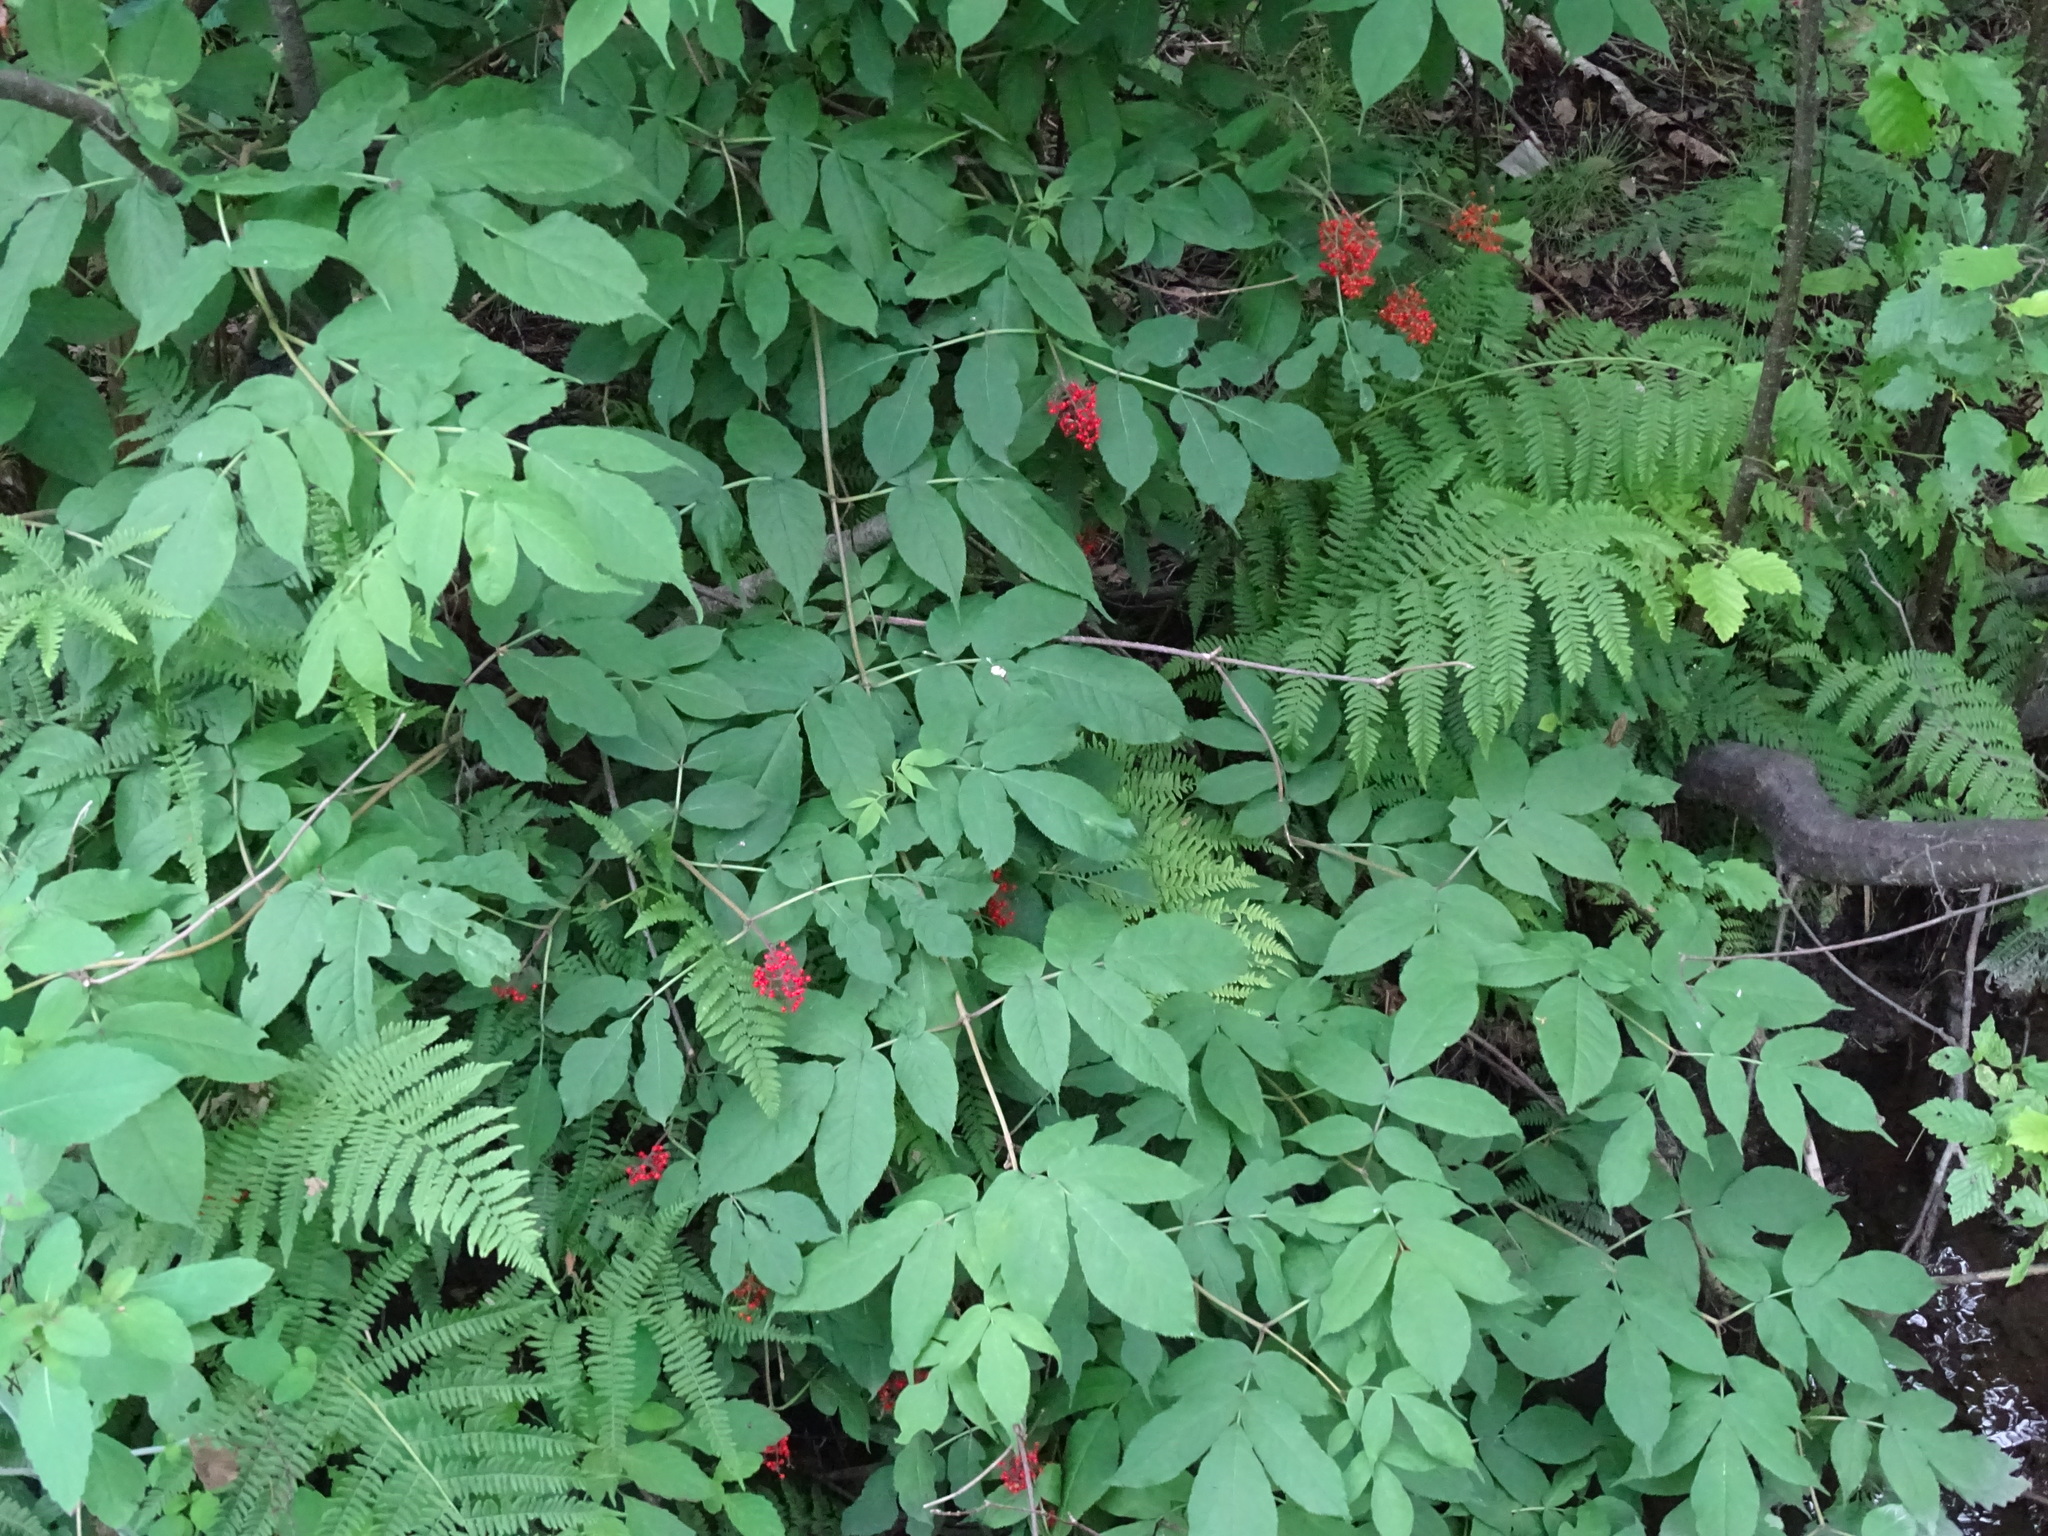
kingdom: Plantae
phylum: Tracheophyta
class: Magnoliopsida
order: Dipsacales
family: Viburnaceae
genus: Sambucus
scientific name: Sambucus racemosa
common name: Red-berried elder
